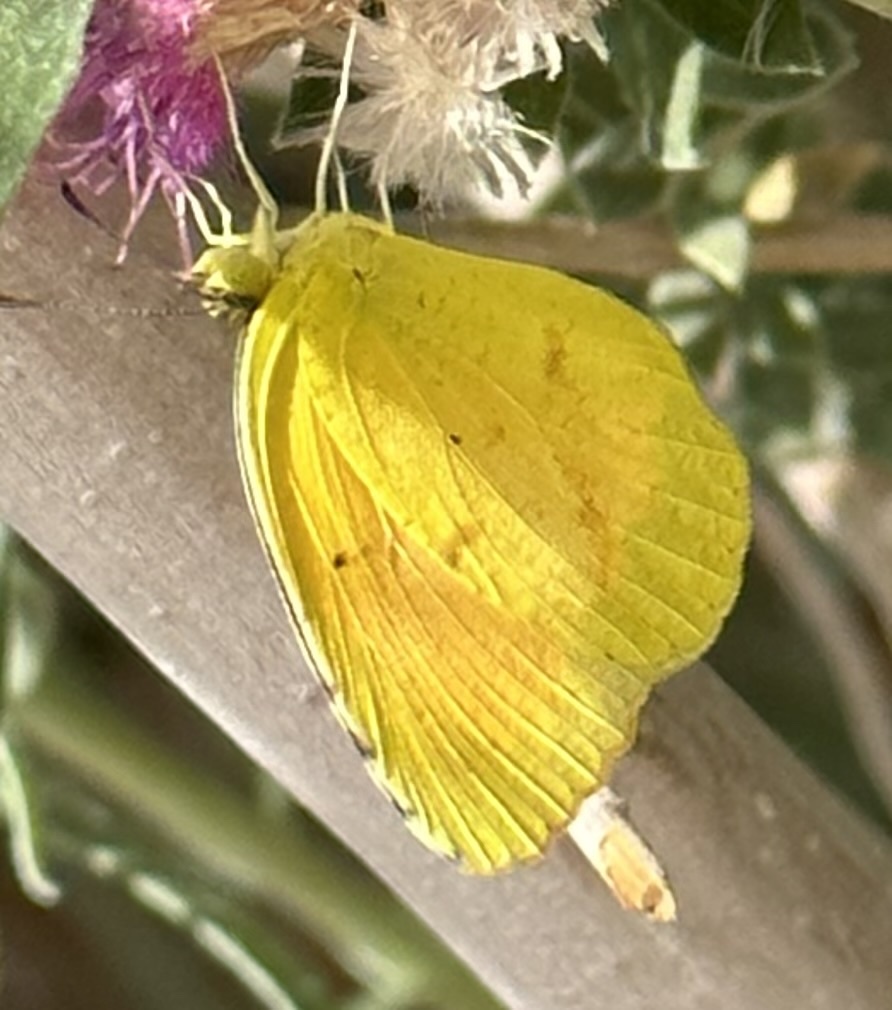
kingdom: Animalia
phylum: Arthropoda
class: Insecta
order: Lepidoptera
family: Pieridae
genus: Abaeis
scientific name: Abaeis nicippe
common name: Sleepy orange
